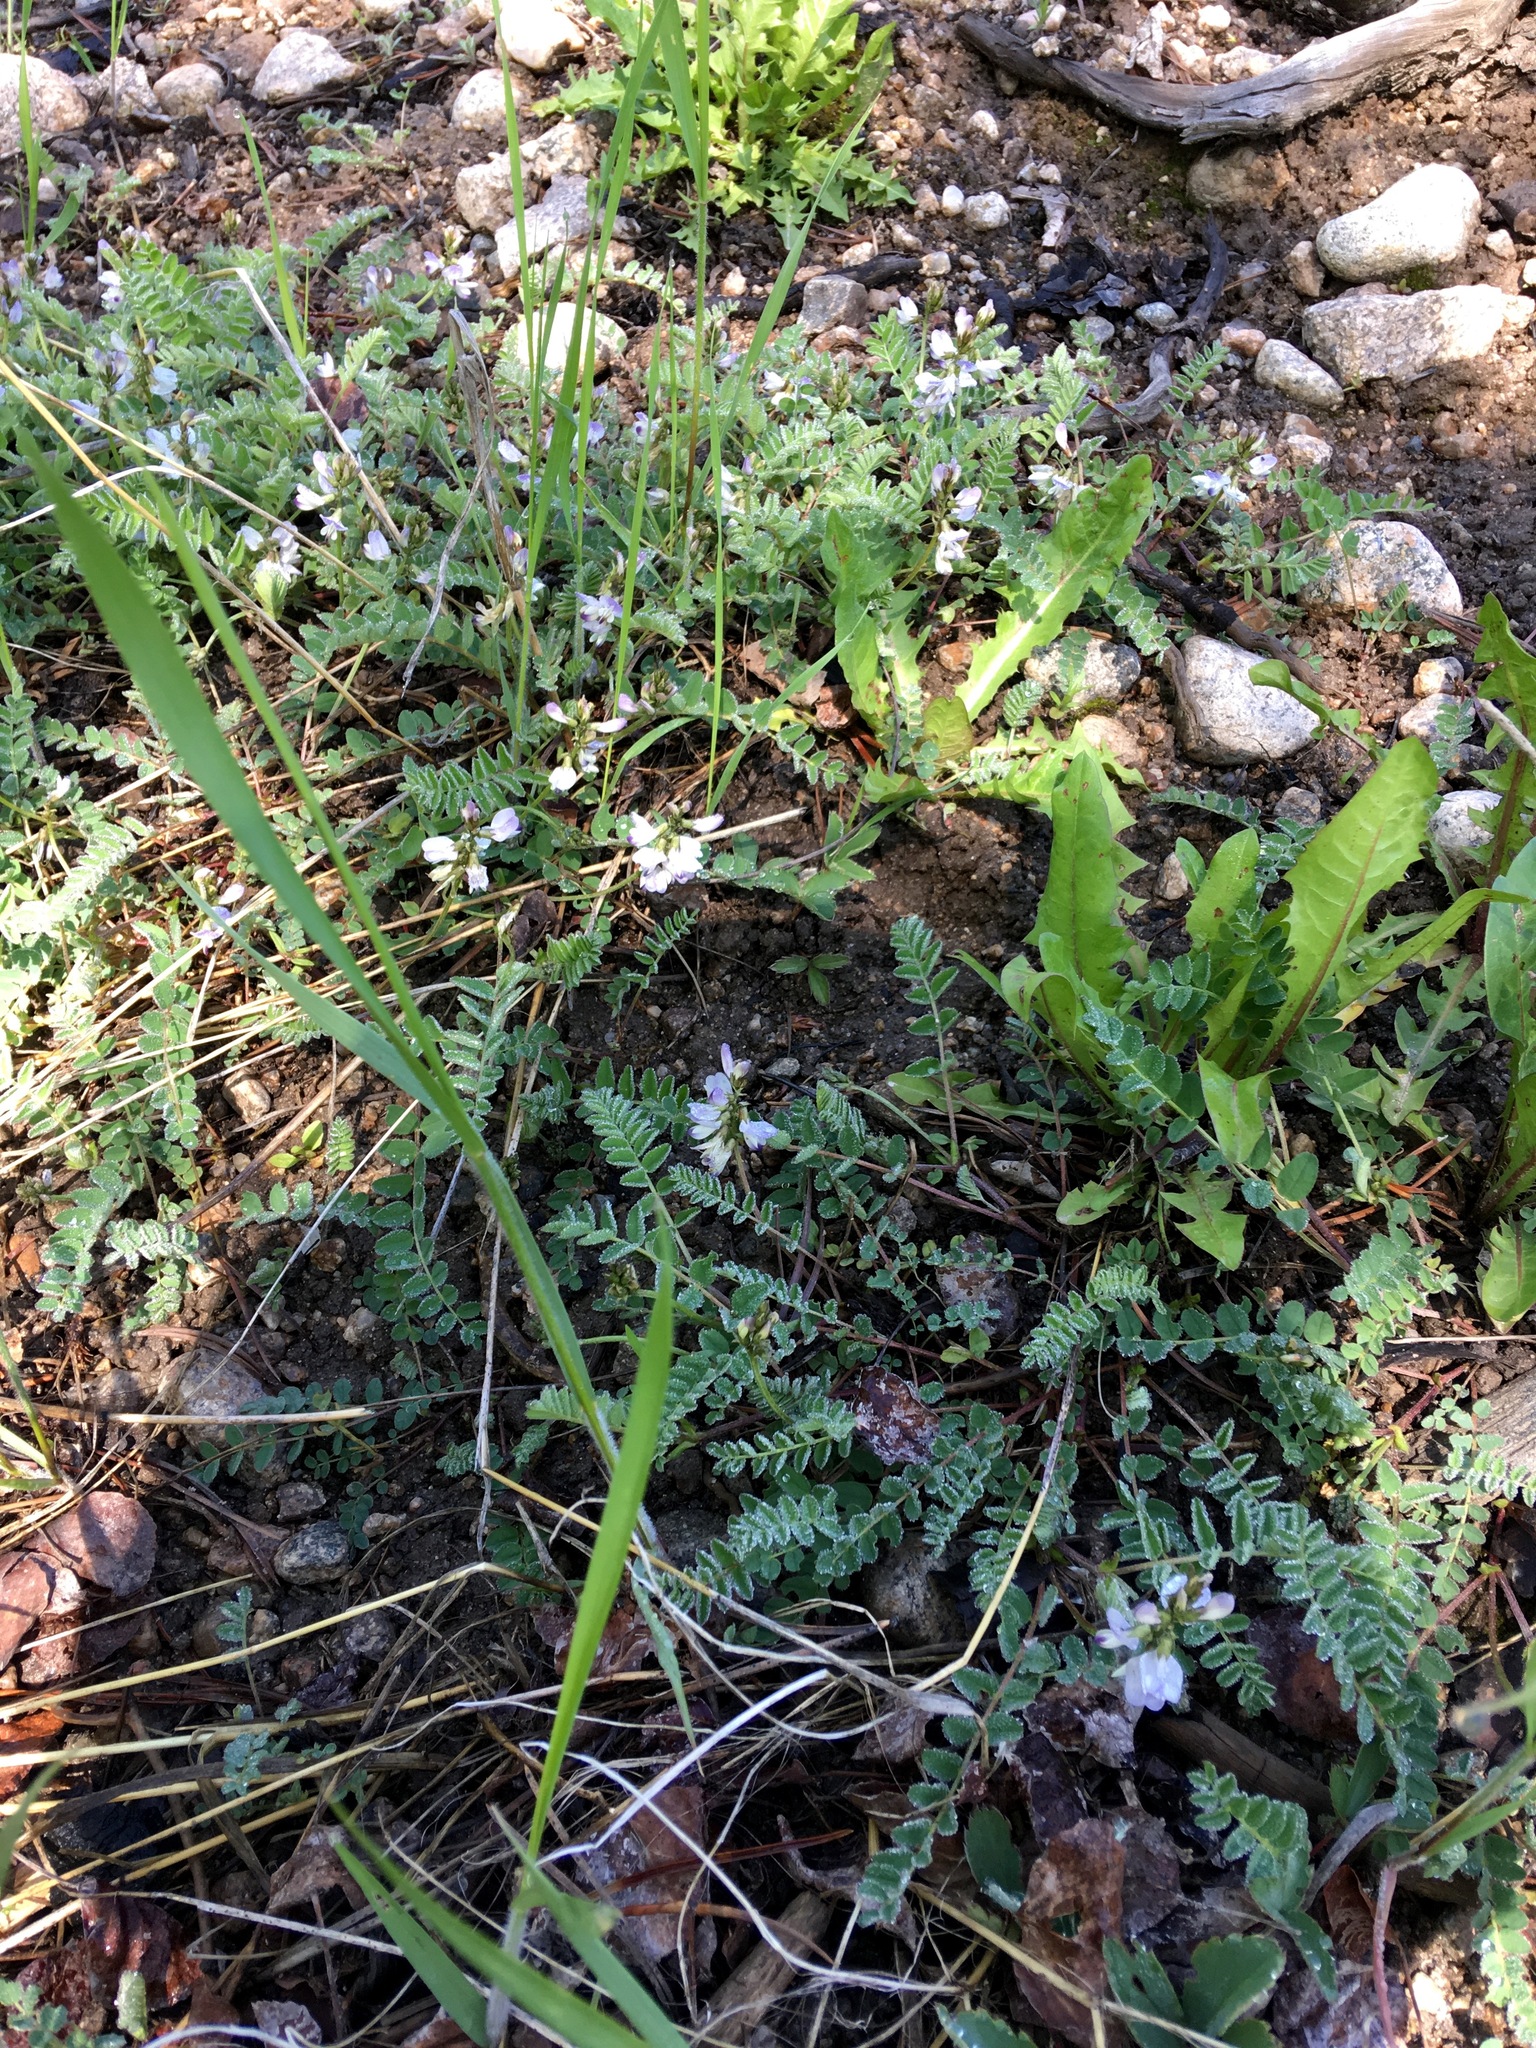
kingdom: Plantae
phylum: Tracheophyta
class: Magnoliopsida
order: Fabales
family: Fabaceae
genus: Astragalus
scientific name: Astragalus alpinus
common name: Alpine milk-vetch
